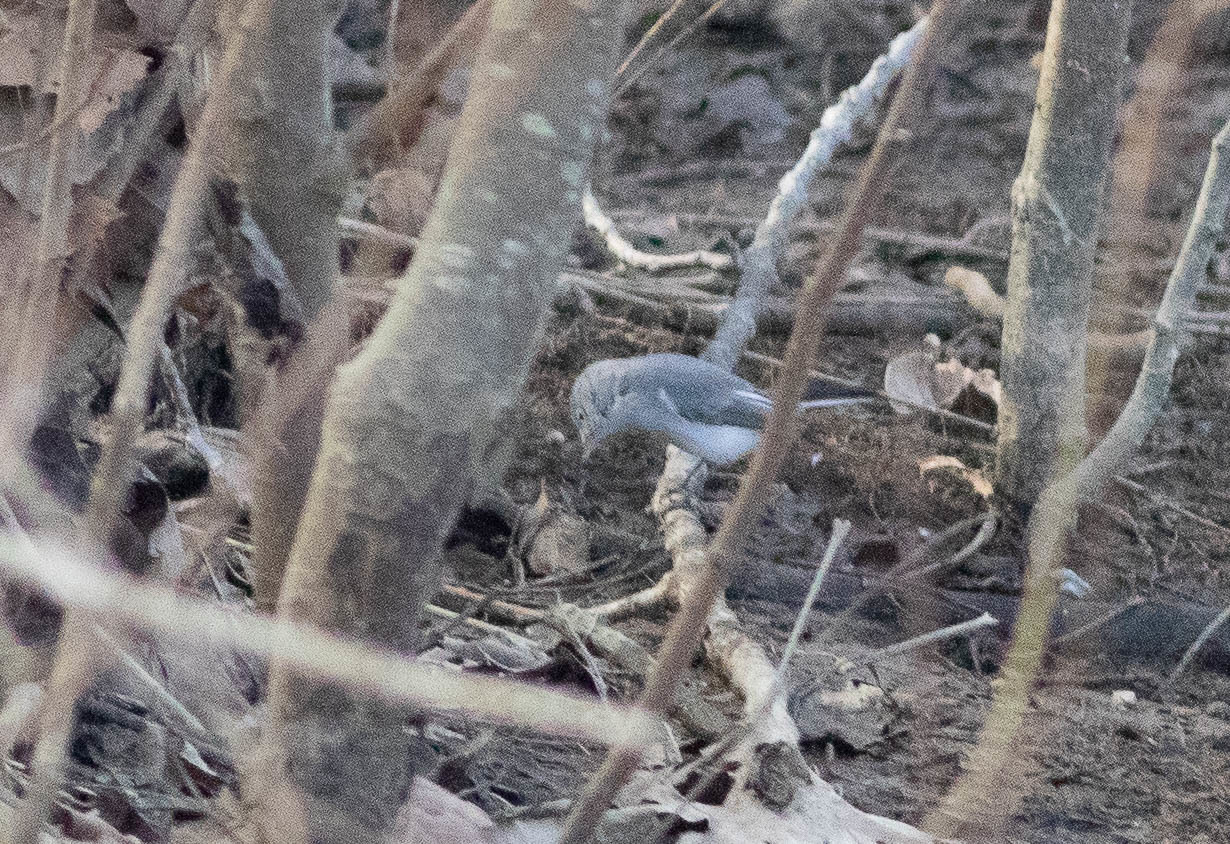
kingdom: Animalia
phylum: Chordata
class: Aves
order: Passeriformes
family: Polioptilidae
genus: Polioptila
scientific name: Polioptila caerulea
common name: Blue-gray gnatcatcher
